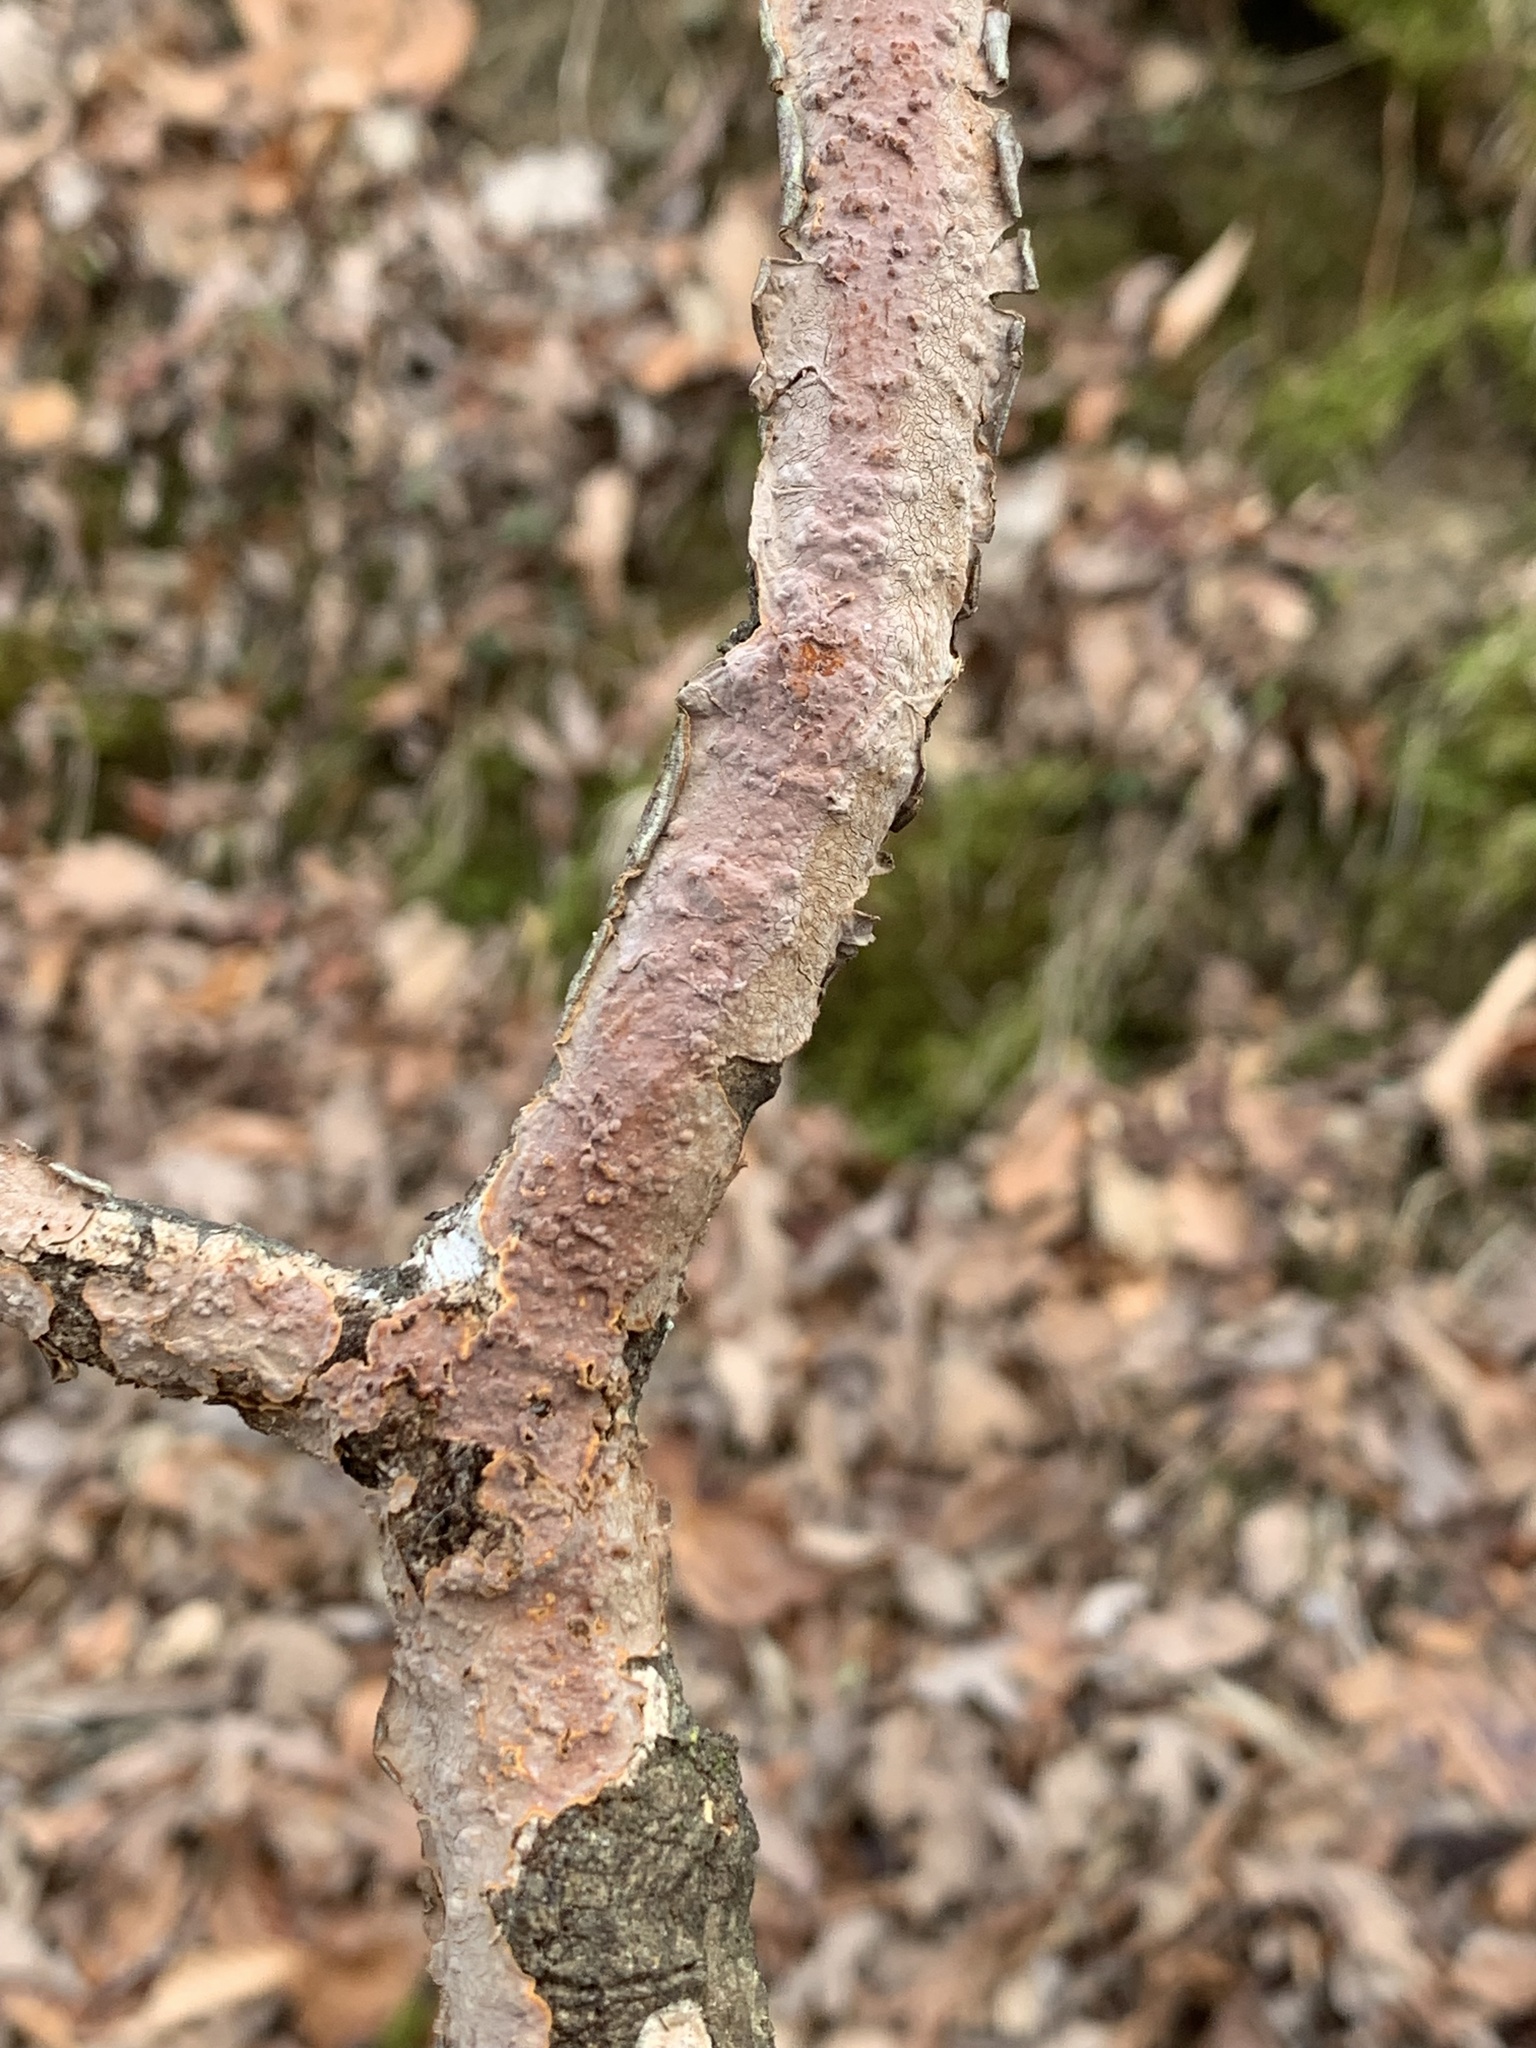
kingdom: Fungi
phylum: Basidiomycota
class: Agaricomycetes
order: Russulales
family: Peniophoraceae
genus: Peniophora
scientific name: Peniophora incarnata
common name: Rosy crust
